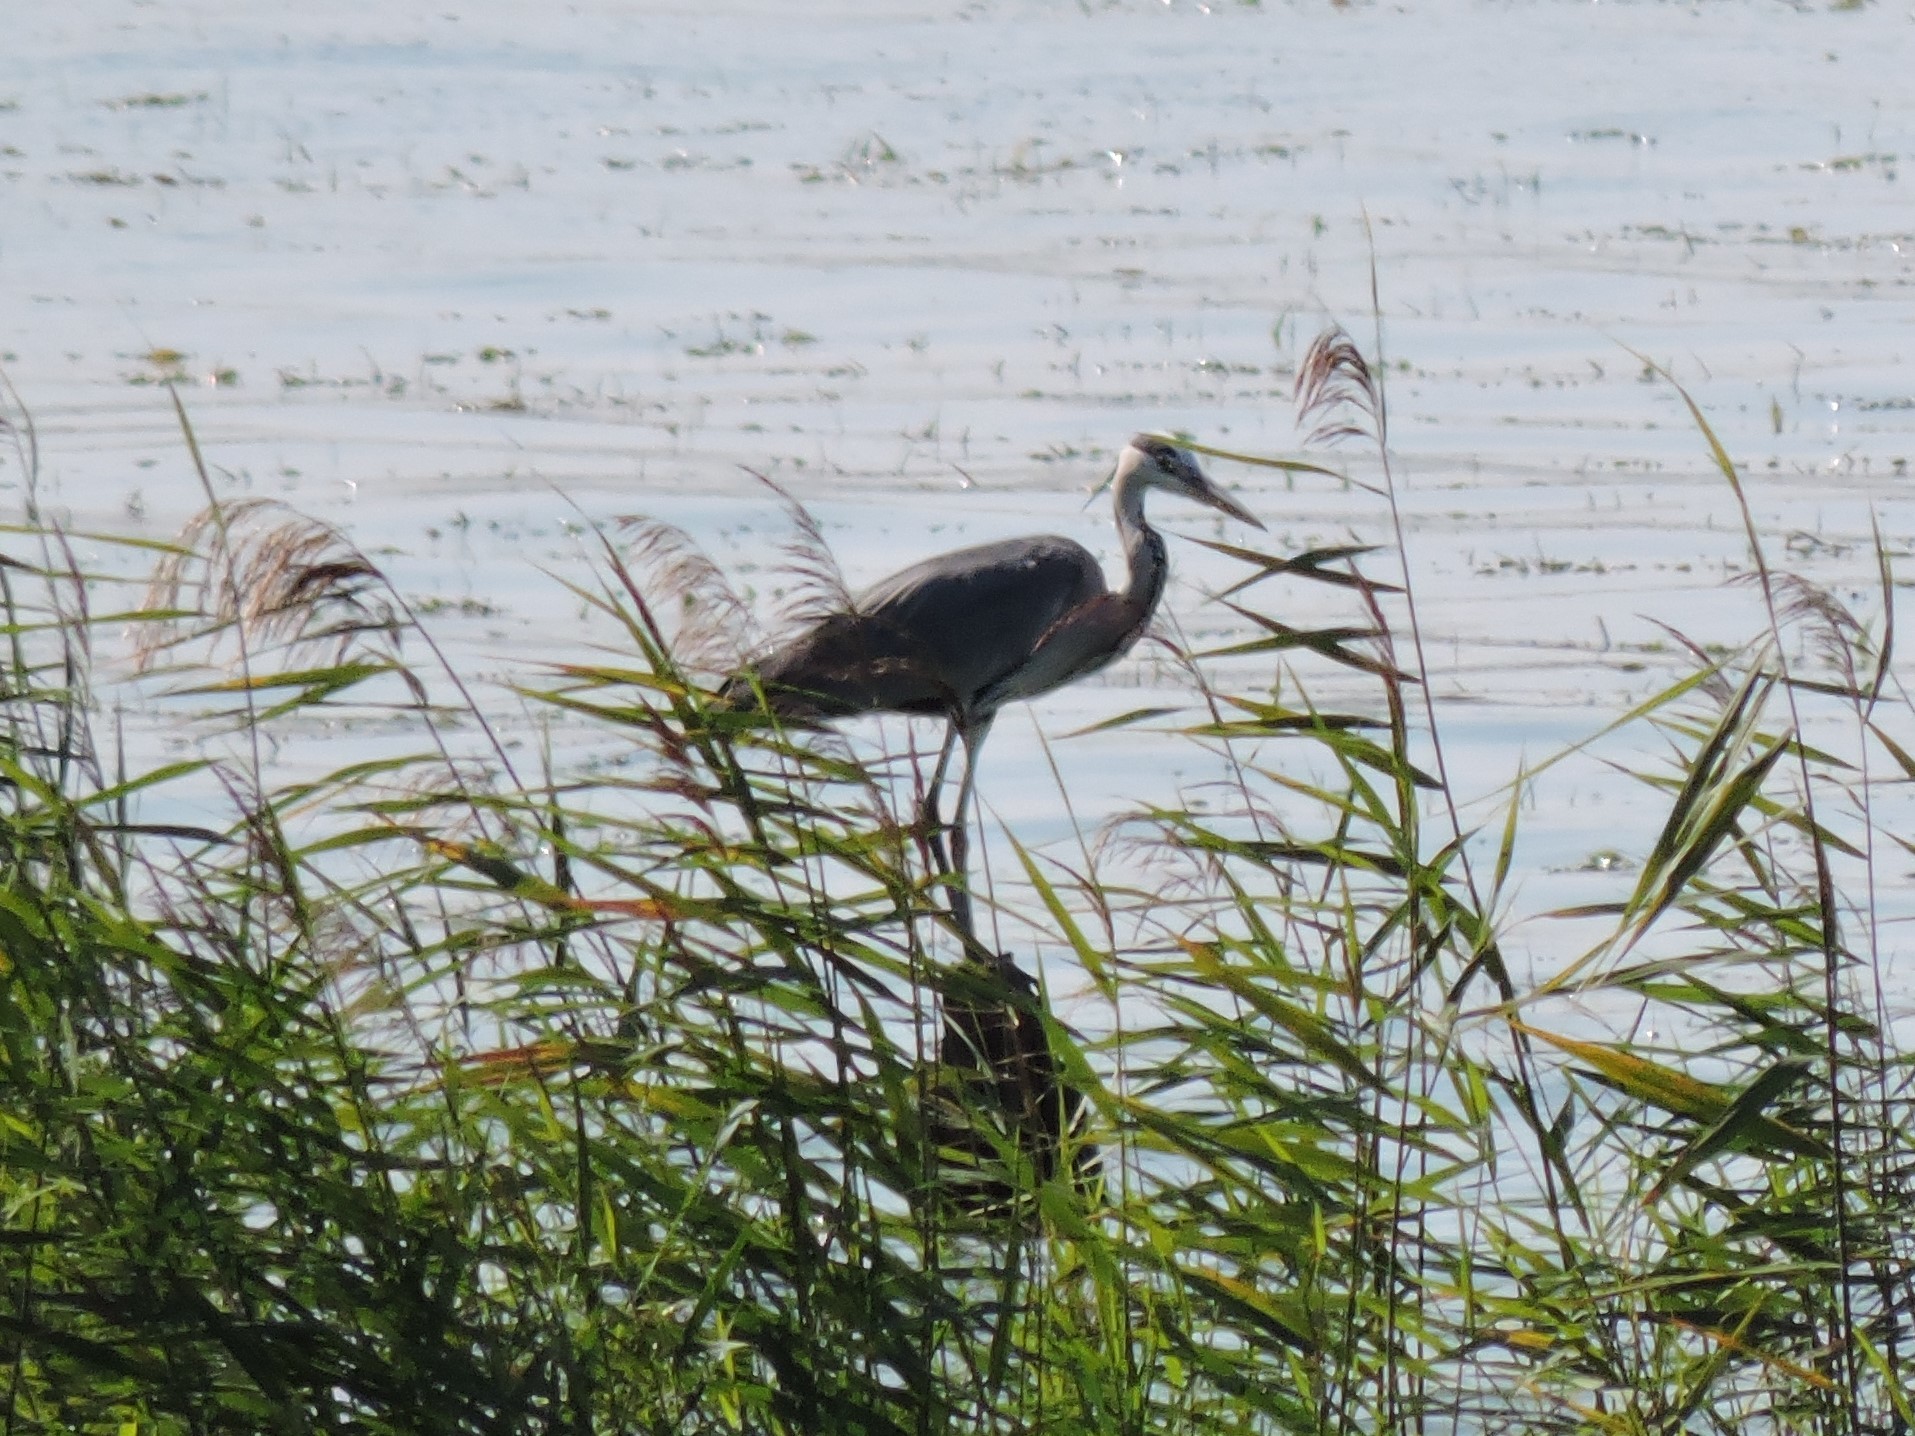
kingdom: Animalia
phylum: Chordata
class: Aves
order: Pelecaniformes
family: Ardeidae
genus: Ardea
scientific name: Ardea cinerea
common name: Grey heron
